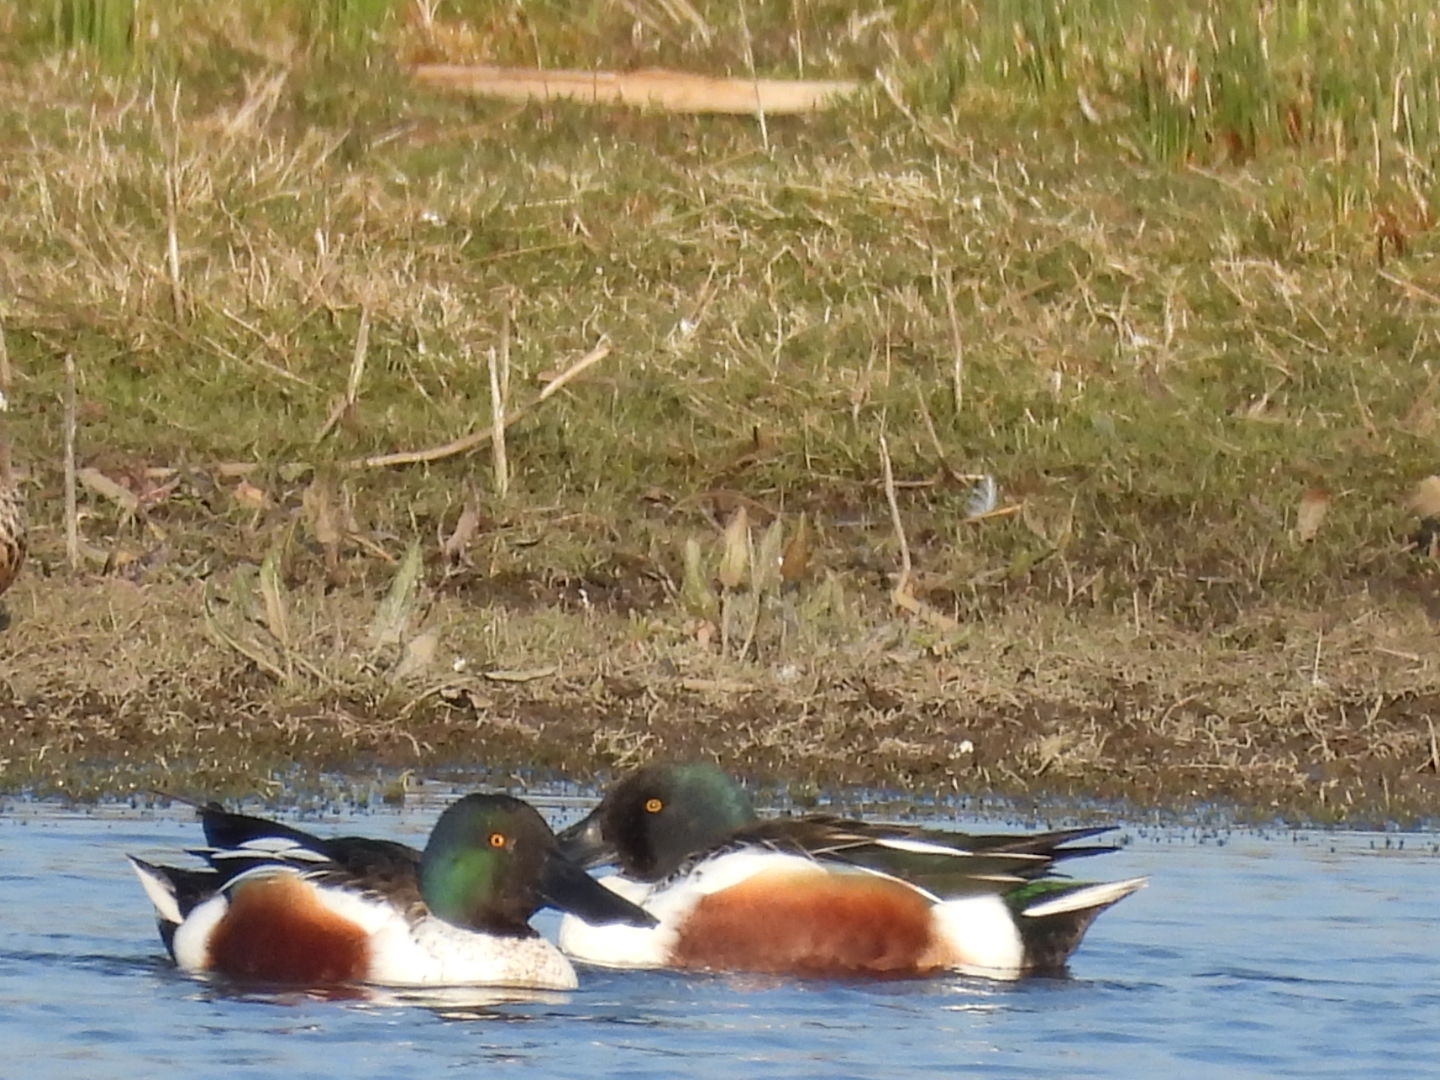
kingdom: Animalia
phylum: Chordata
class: Aves
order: Anseriformes
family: Anatidae
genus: Spatula
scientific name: Spatula clypeata
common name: Northern shoveler
